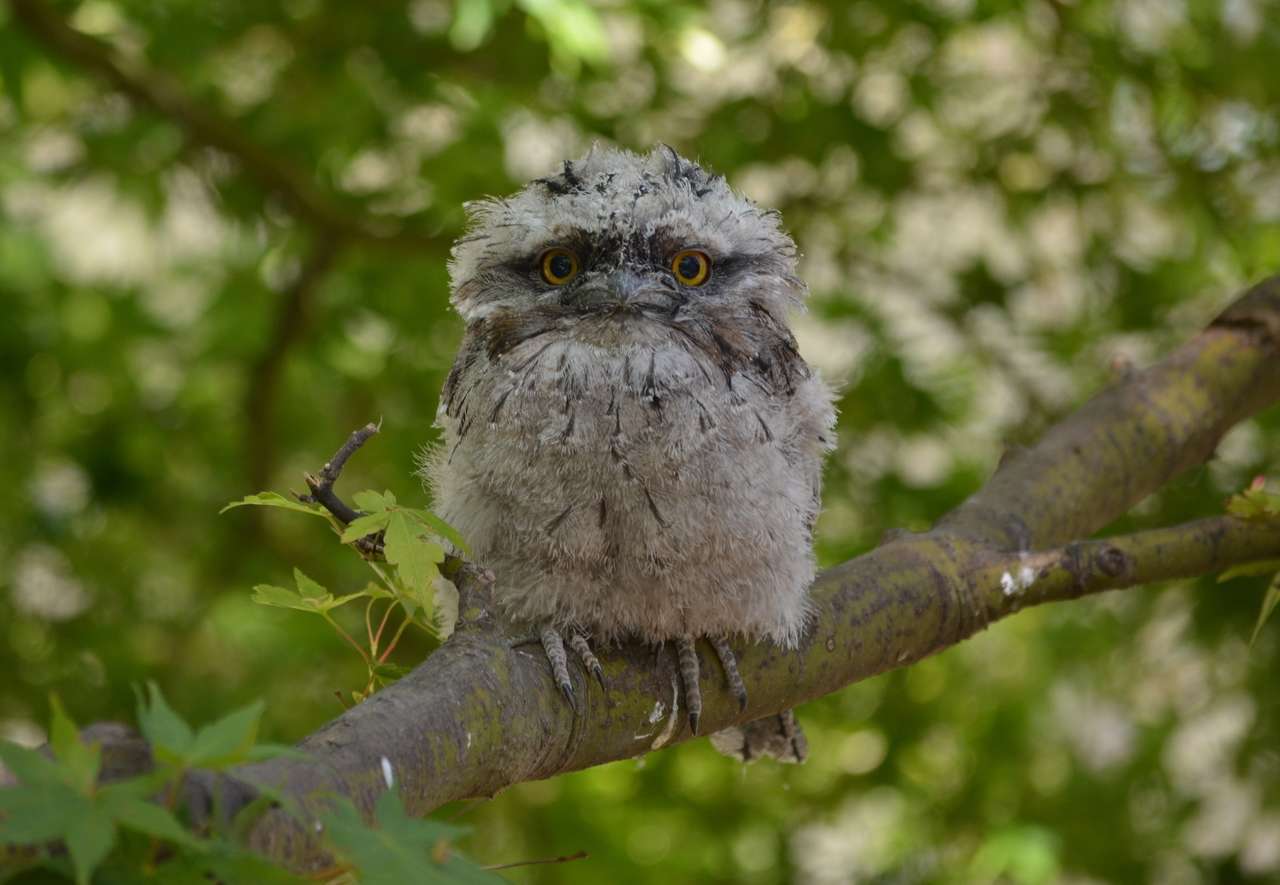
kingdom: Animalia
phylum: Chordata
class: Aves
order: Caprimulgiformes
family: Podargidae
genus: Podargus
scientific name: Podargus strigoides
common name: Tawny frogmouth
